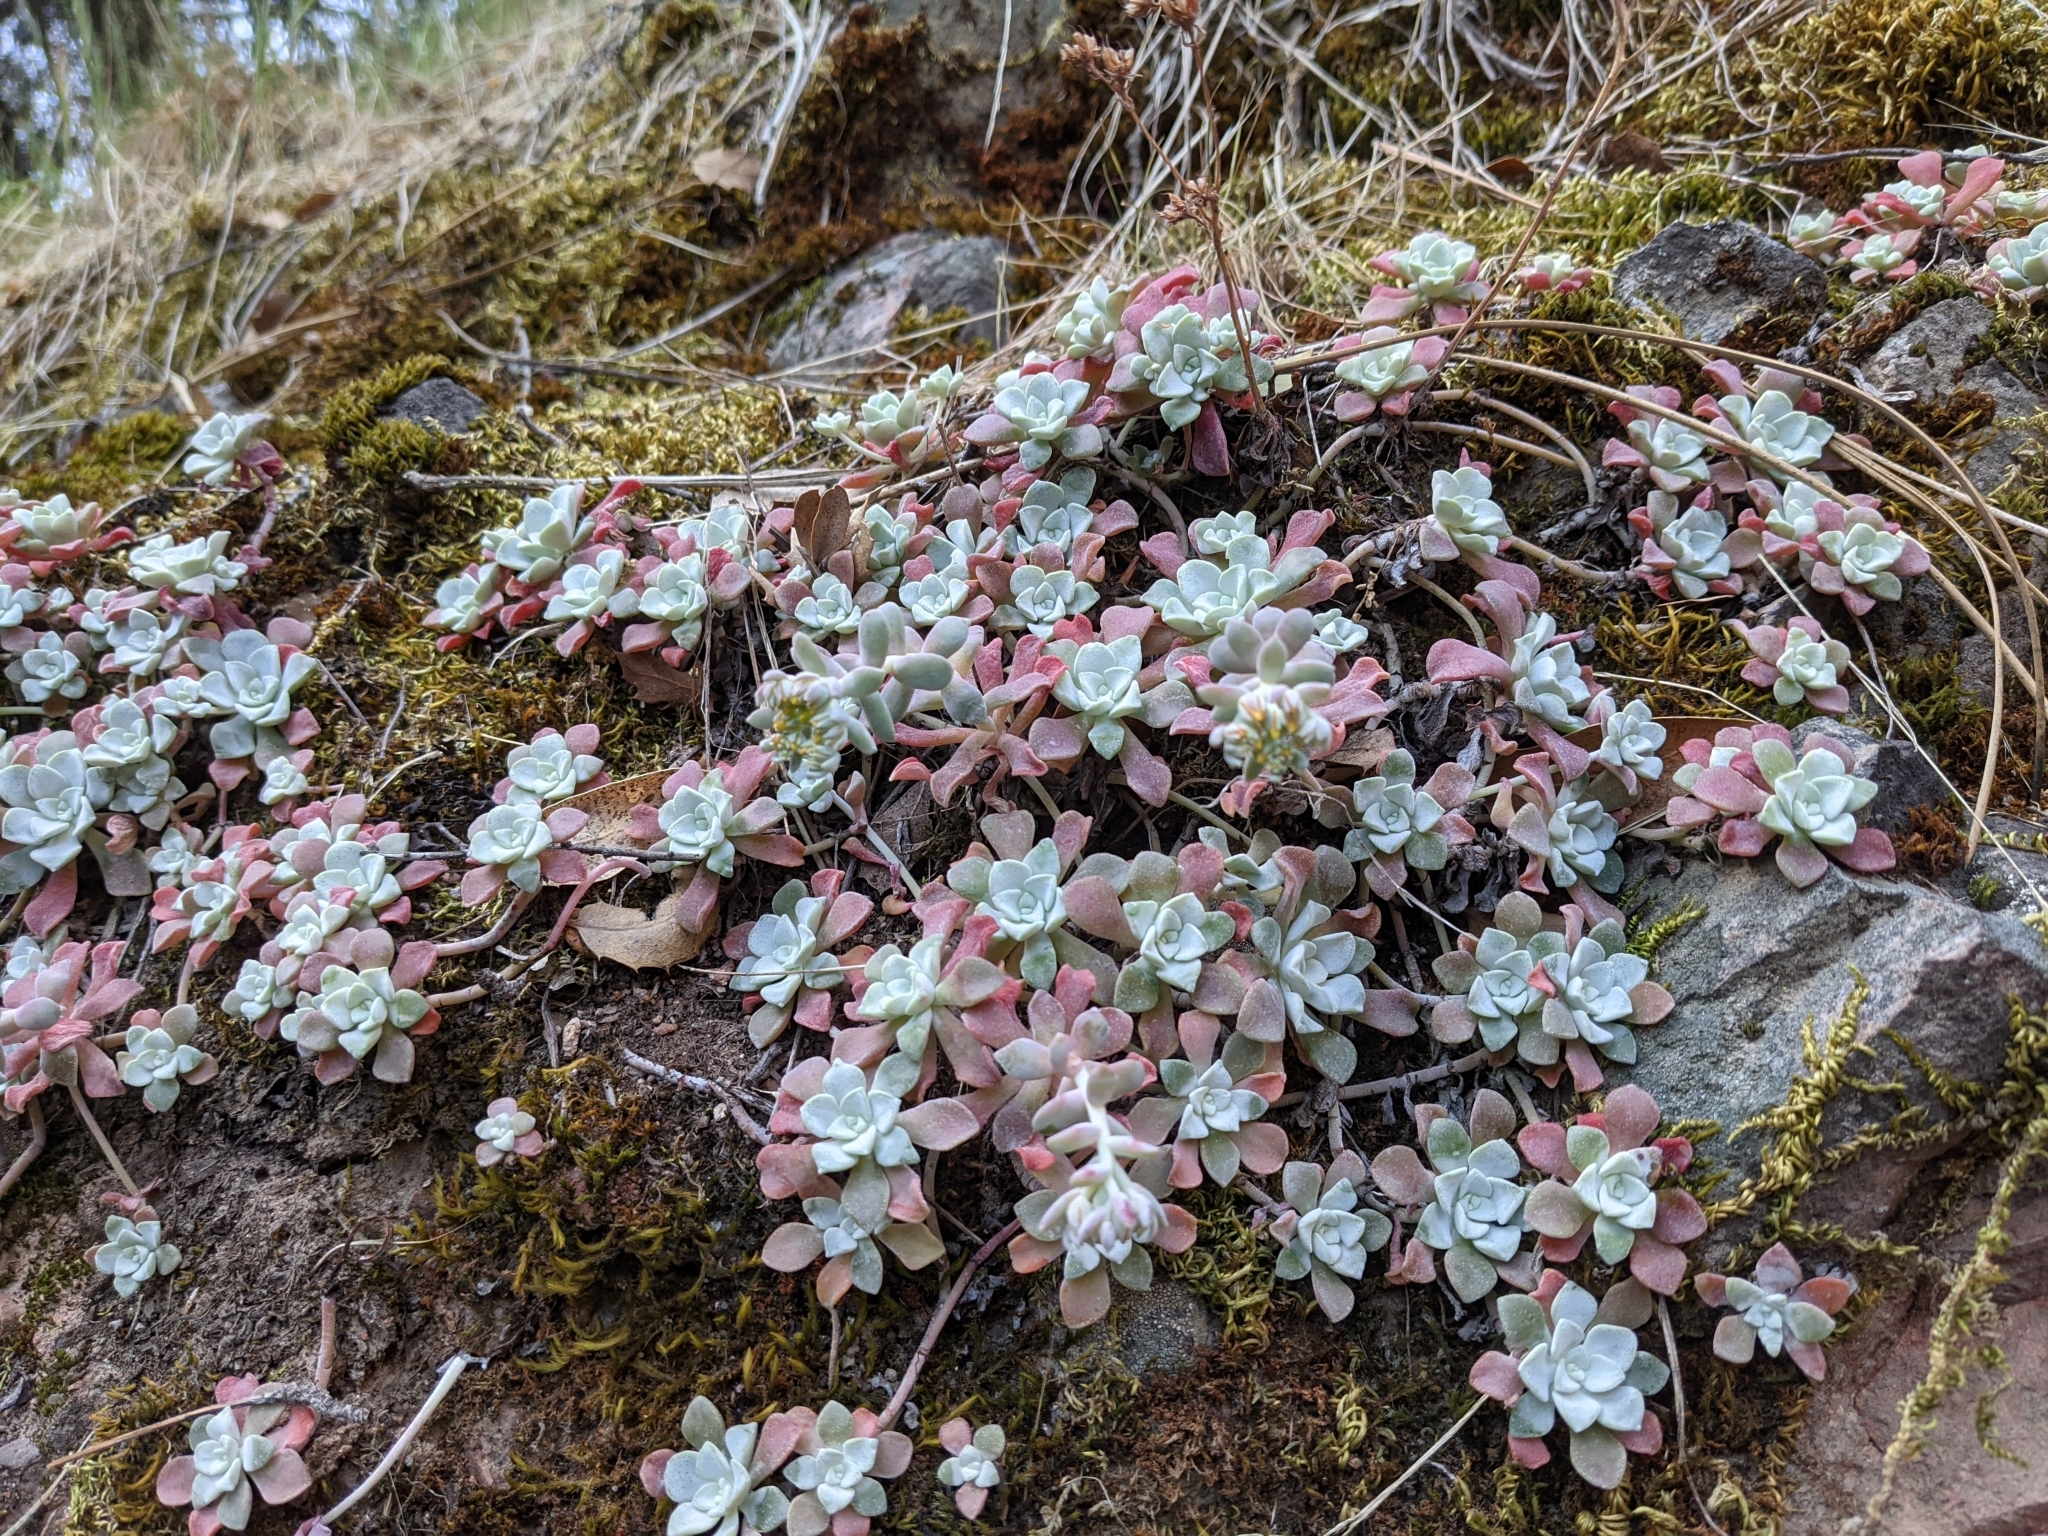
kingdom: Plantae
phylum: Tracheophyta
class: Magnoliopsida
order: Saxifragales
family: Crassulaceae
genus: Sedum
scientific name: Sedum spathulifolium
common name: Colorado stonecrop
